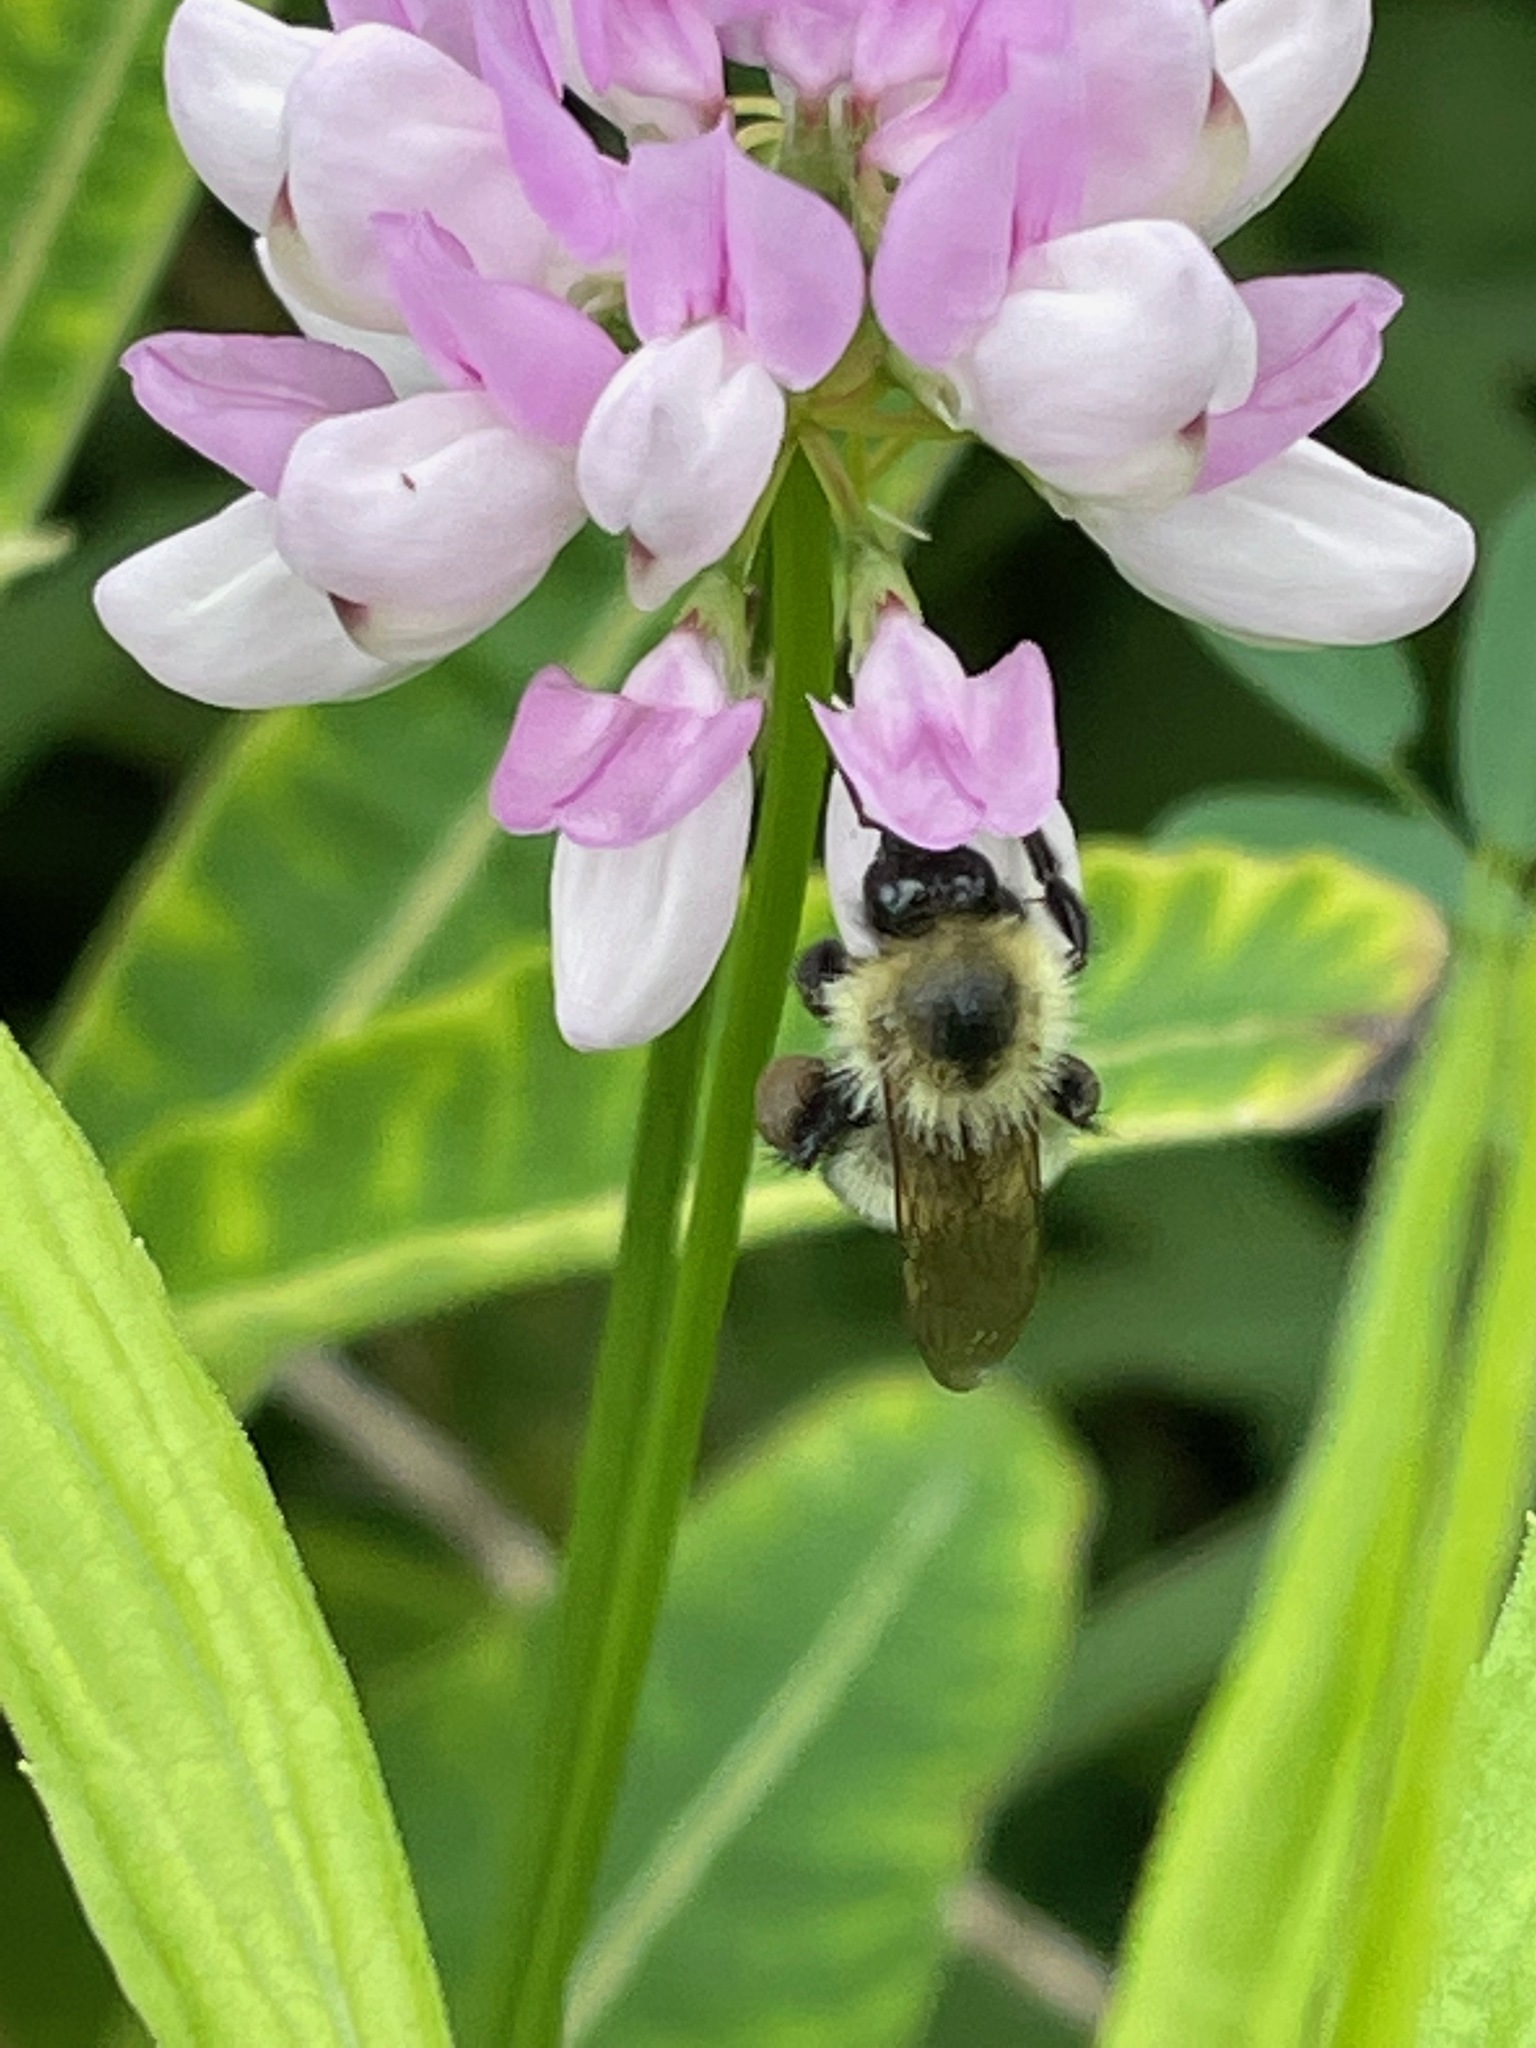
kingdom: Animalia
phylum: Arthropoda
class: Insecta
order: Hymenoptera
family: Apidae
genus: Pyrobombus
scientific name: Pyrobombus
